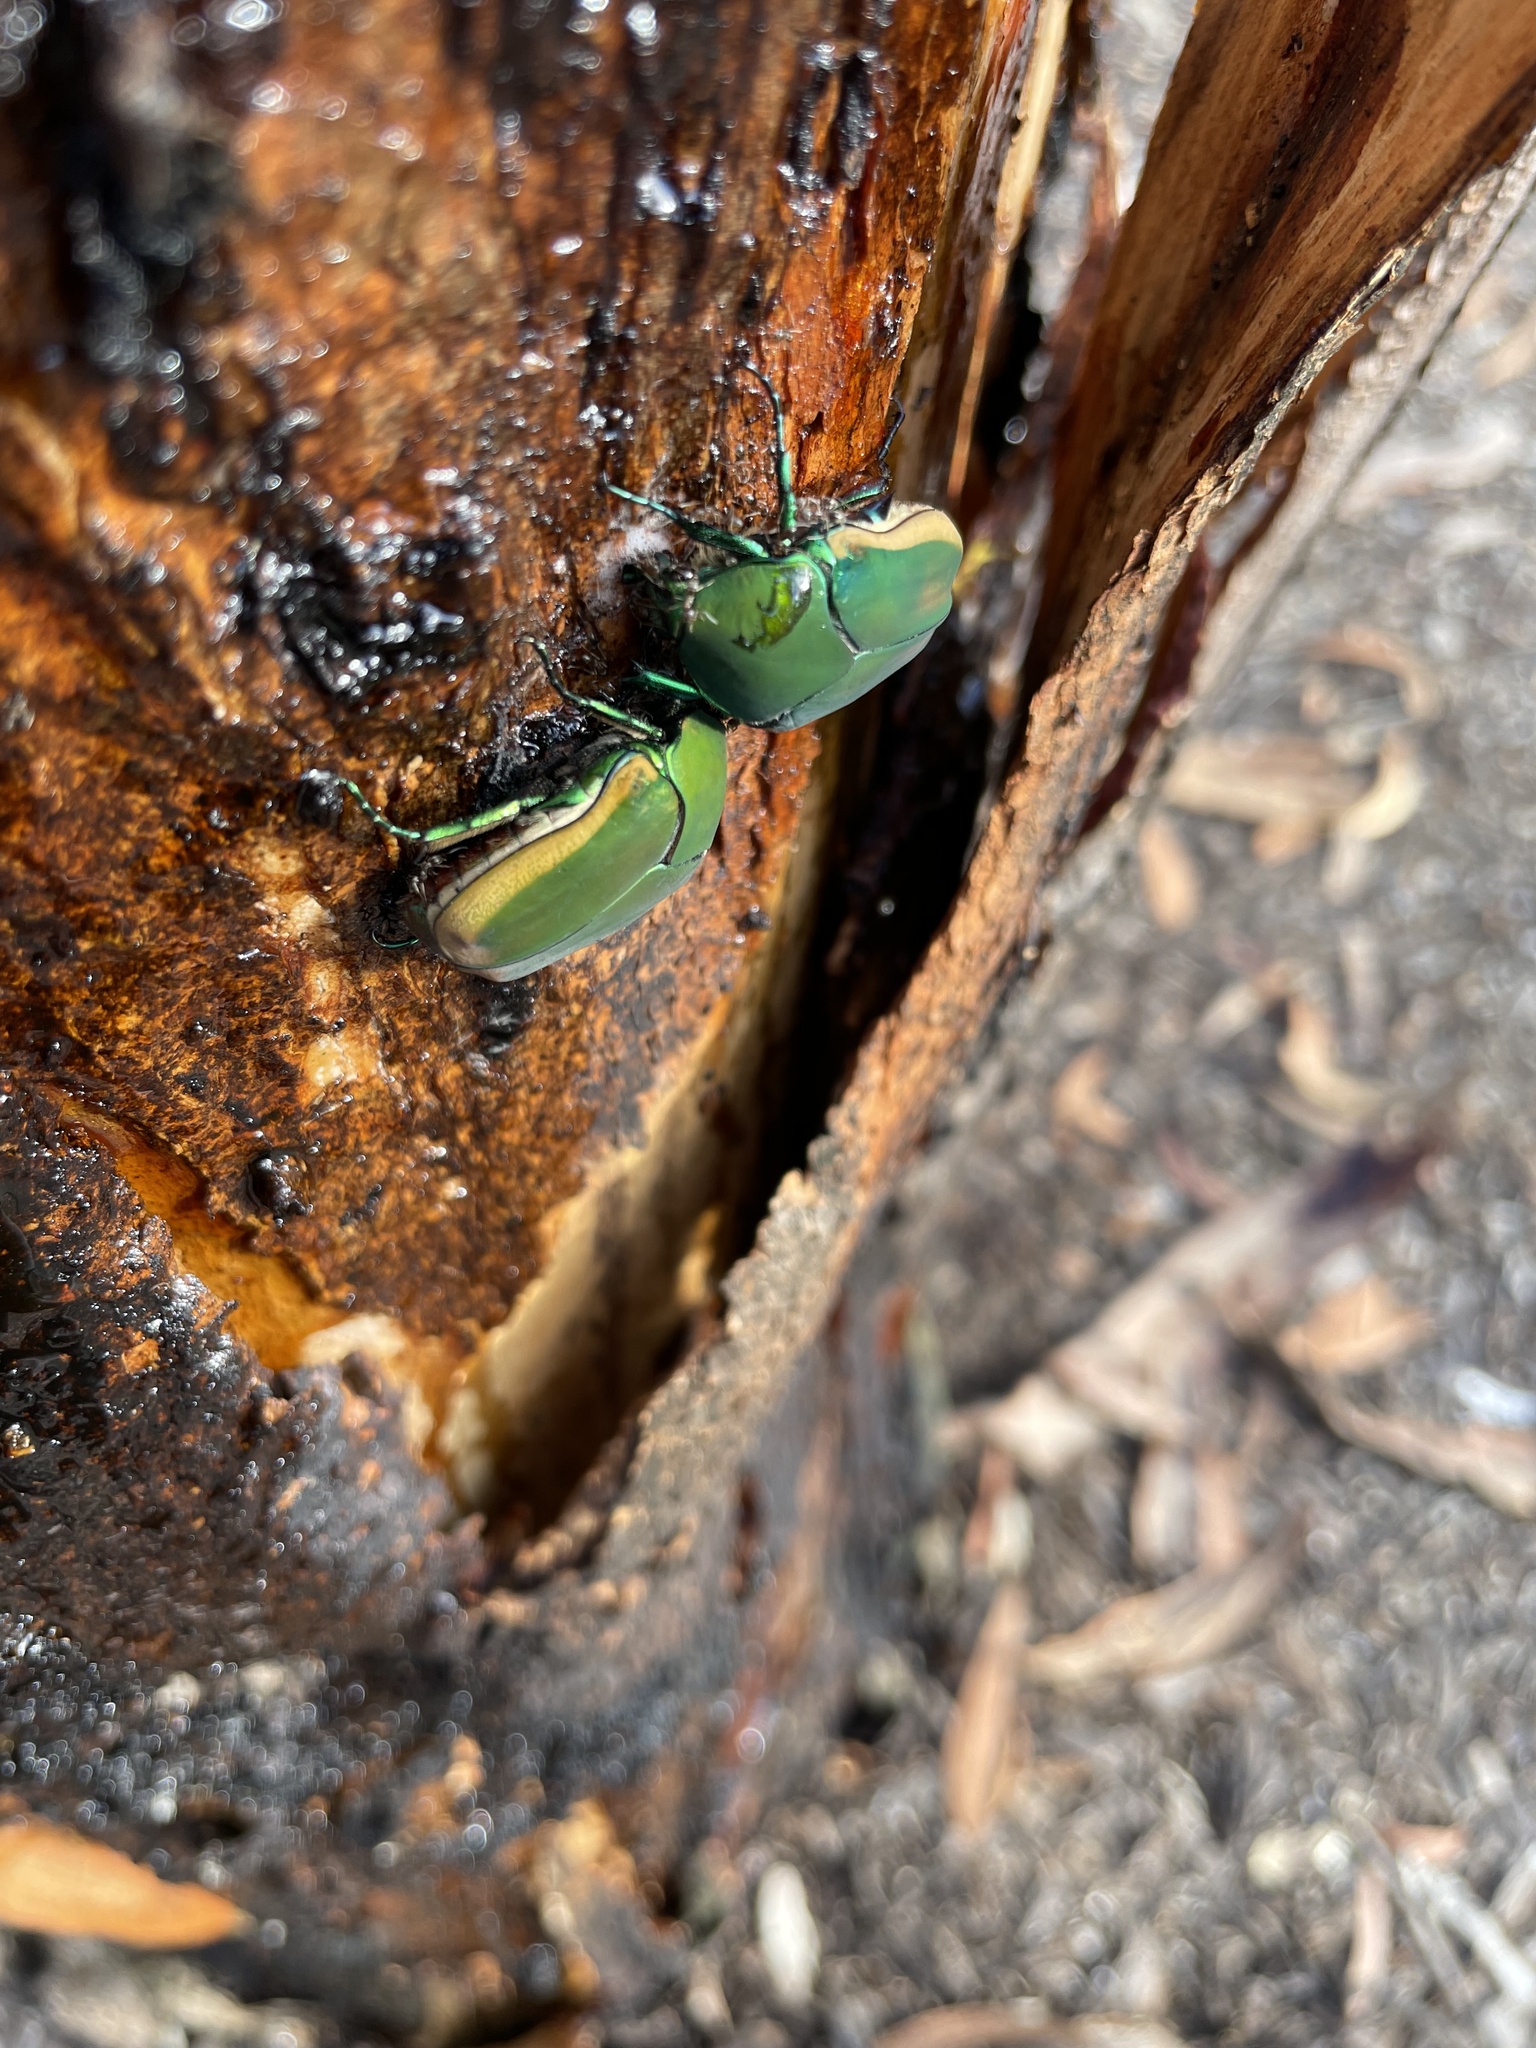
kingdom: Animalia
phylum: Arthropoda
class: Insecta
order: Coleoptera
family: Scarabaeidae
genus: Cotinis
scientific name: Cotinis mutabilis
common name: Figeater beetle
